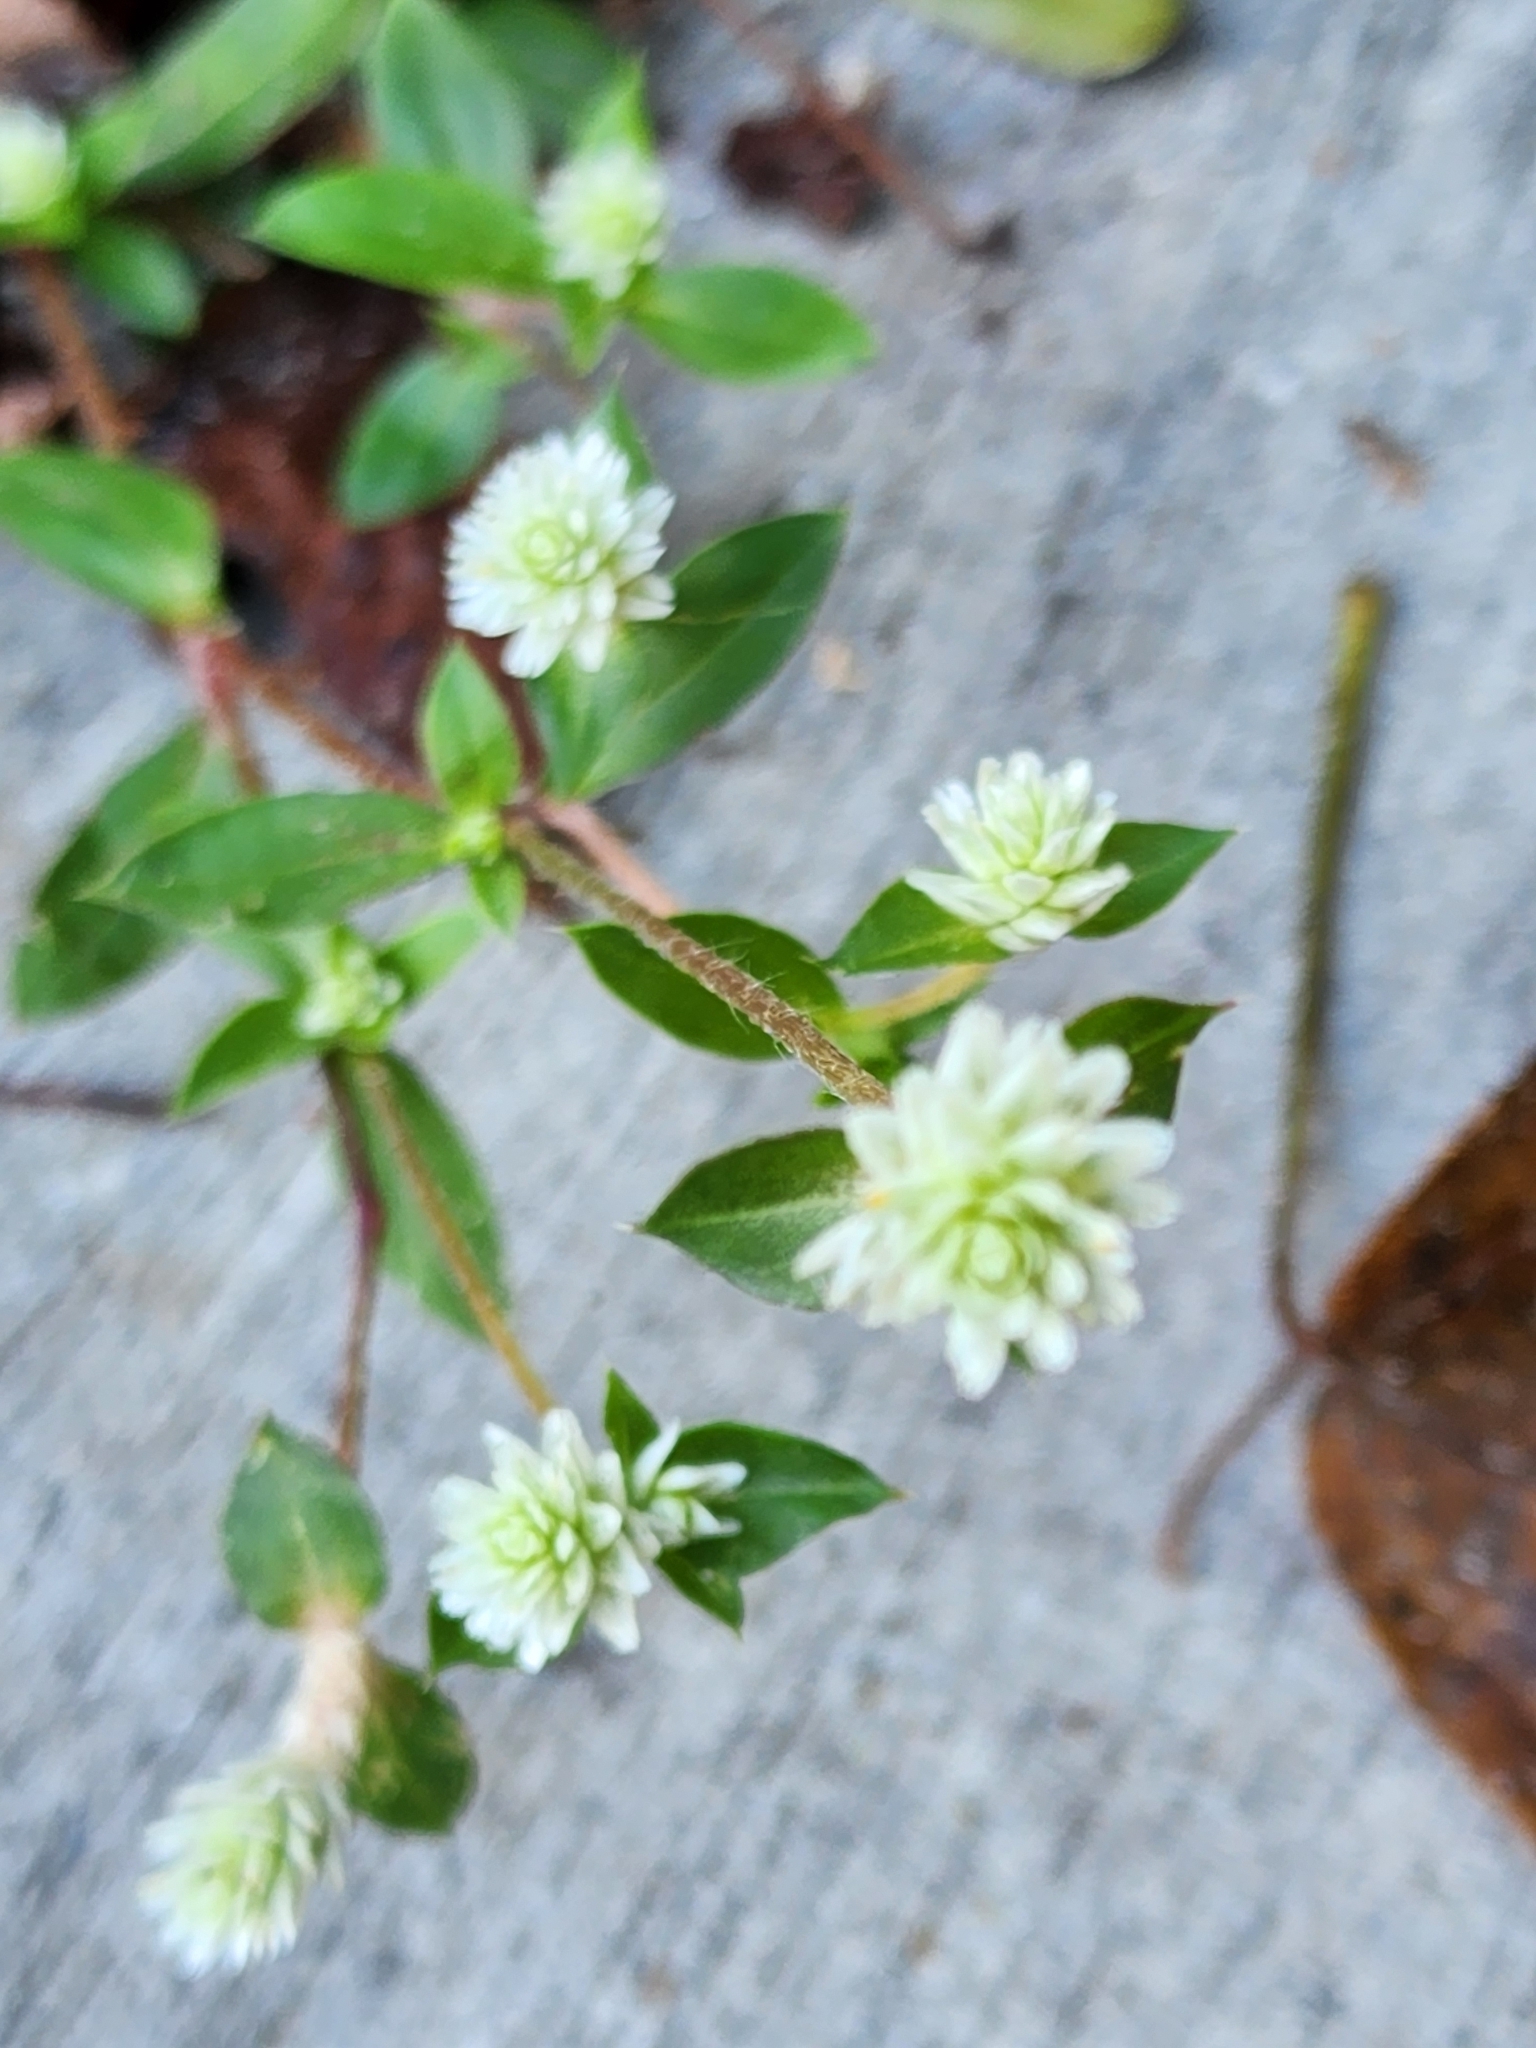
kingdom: Plantae
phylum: Tracheophyta
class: Magnoliopsida
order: Caryophyllales
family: Amaranthaceae
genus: Gomphrena
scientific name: Gomphrena serrata
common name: Arrasa con todo
